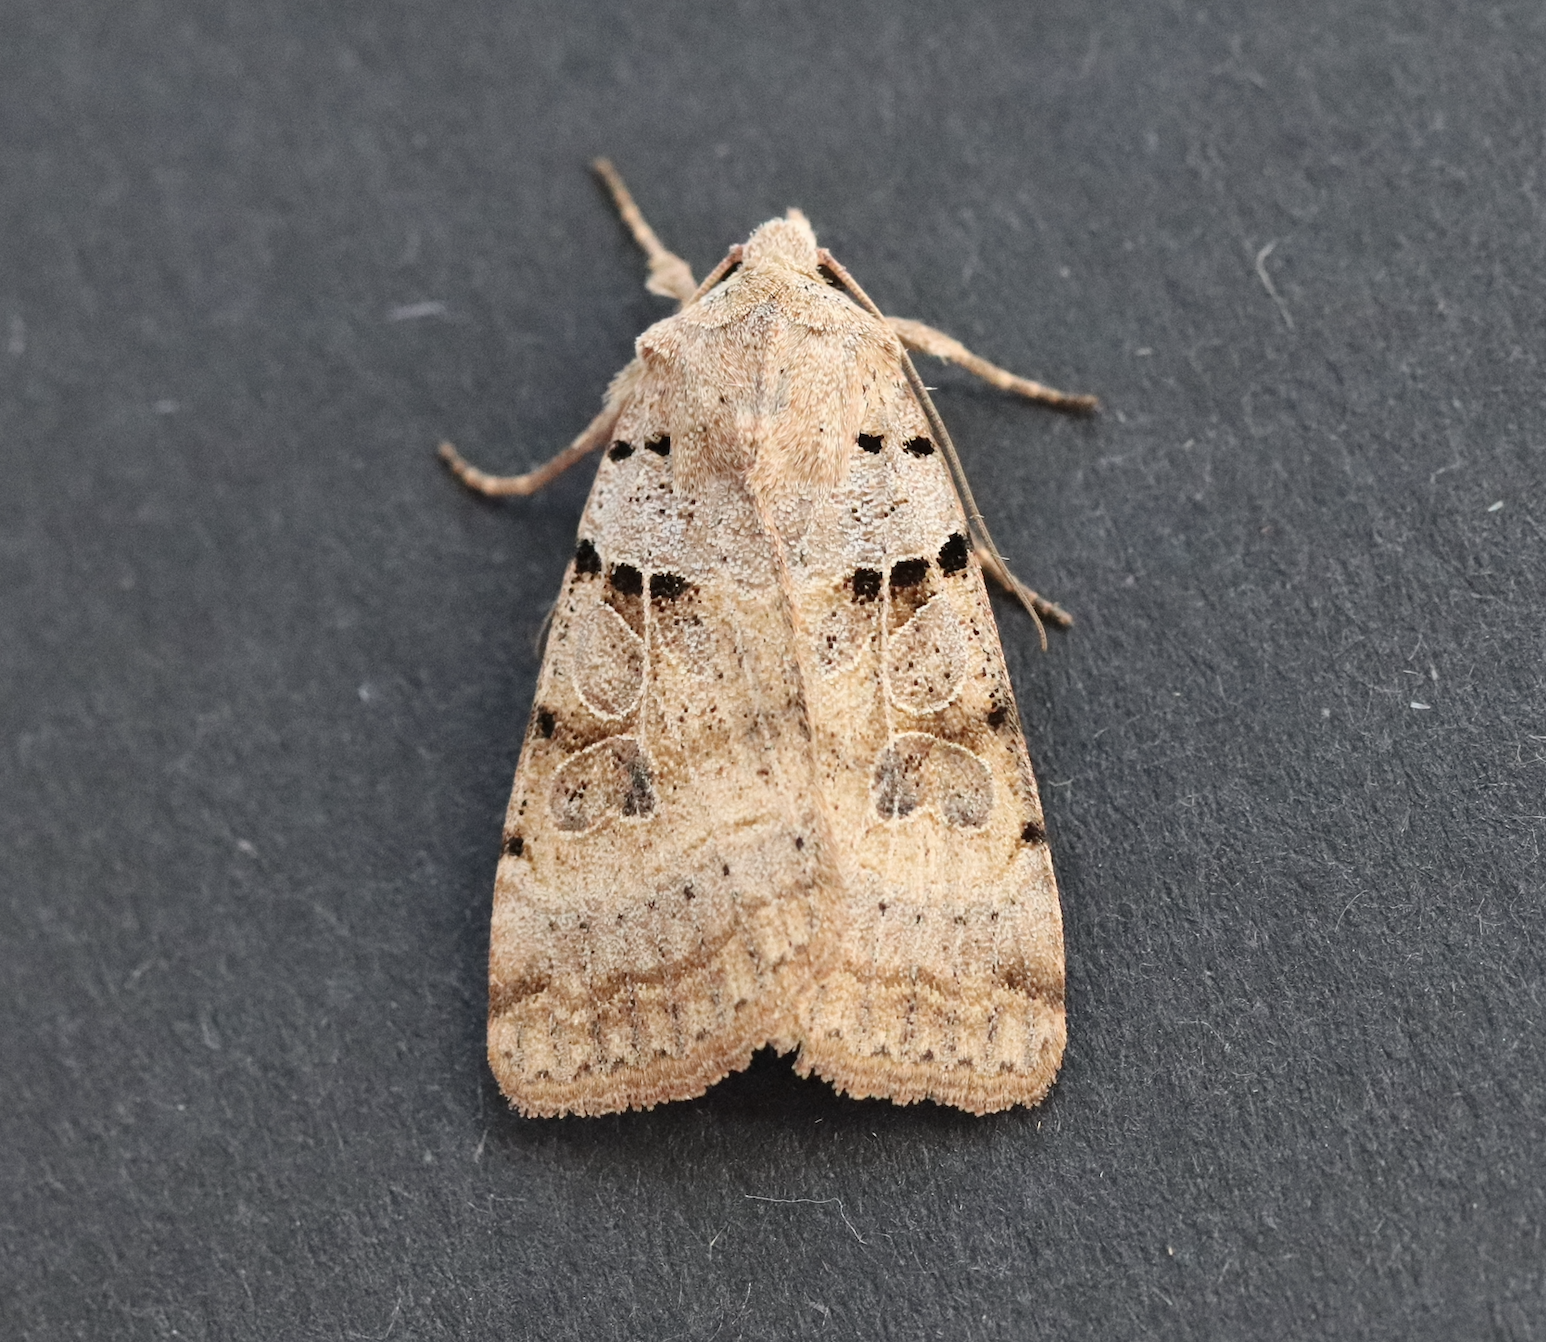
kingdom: Animalia
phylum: Arthropoda
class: Insecta
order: Lepidoptera
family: Noctuidae
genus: Eugnorisma
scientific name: Eugnorisma depuncta
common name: Plain clay
